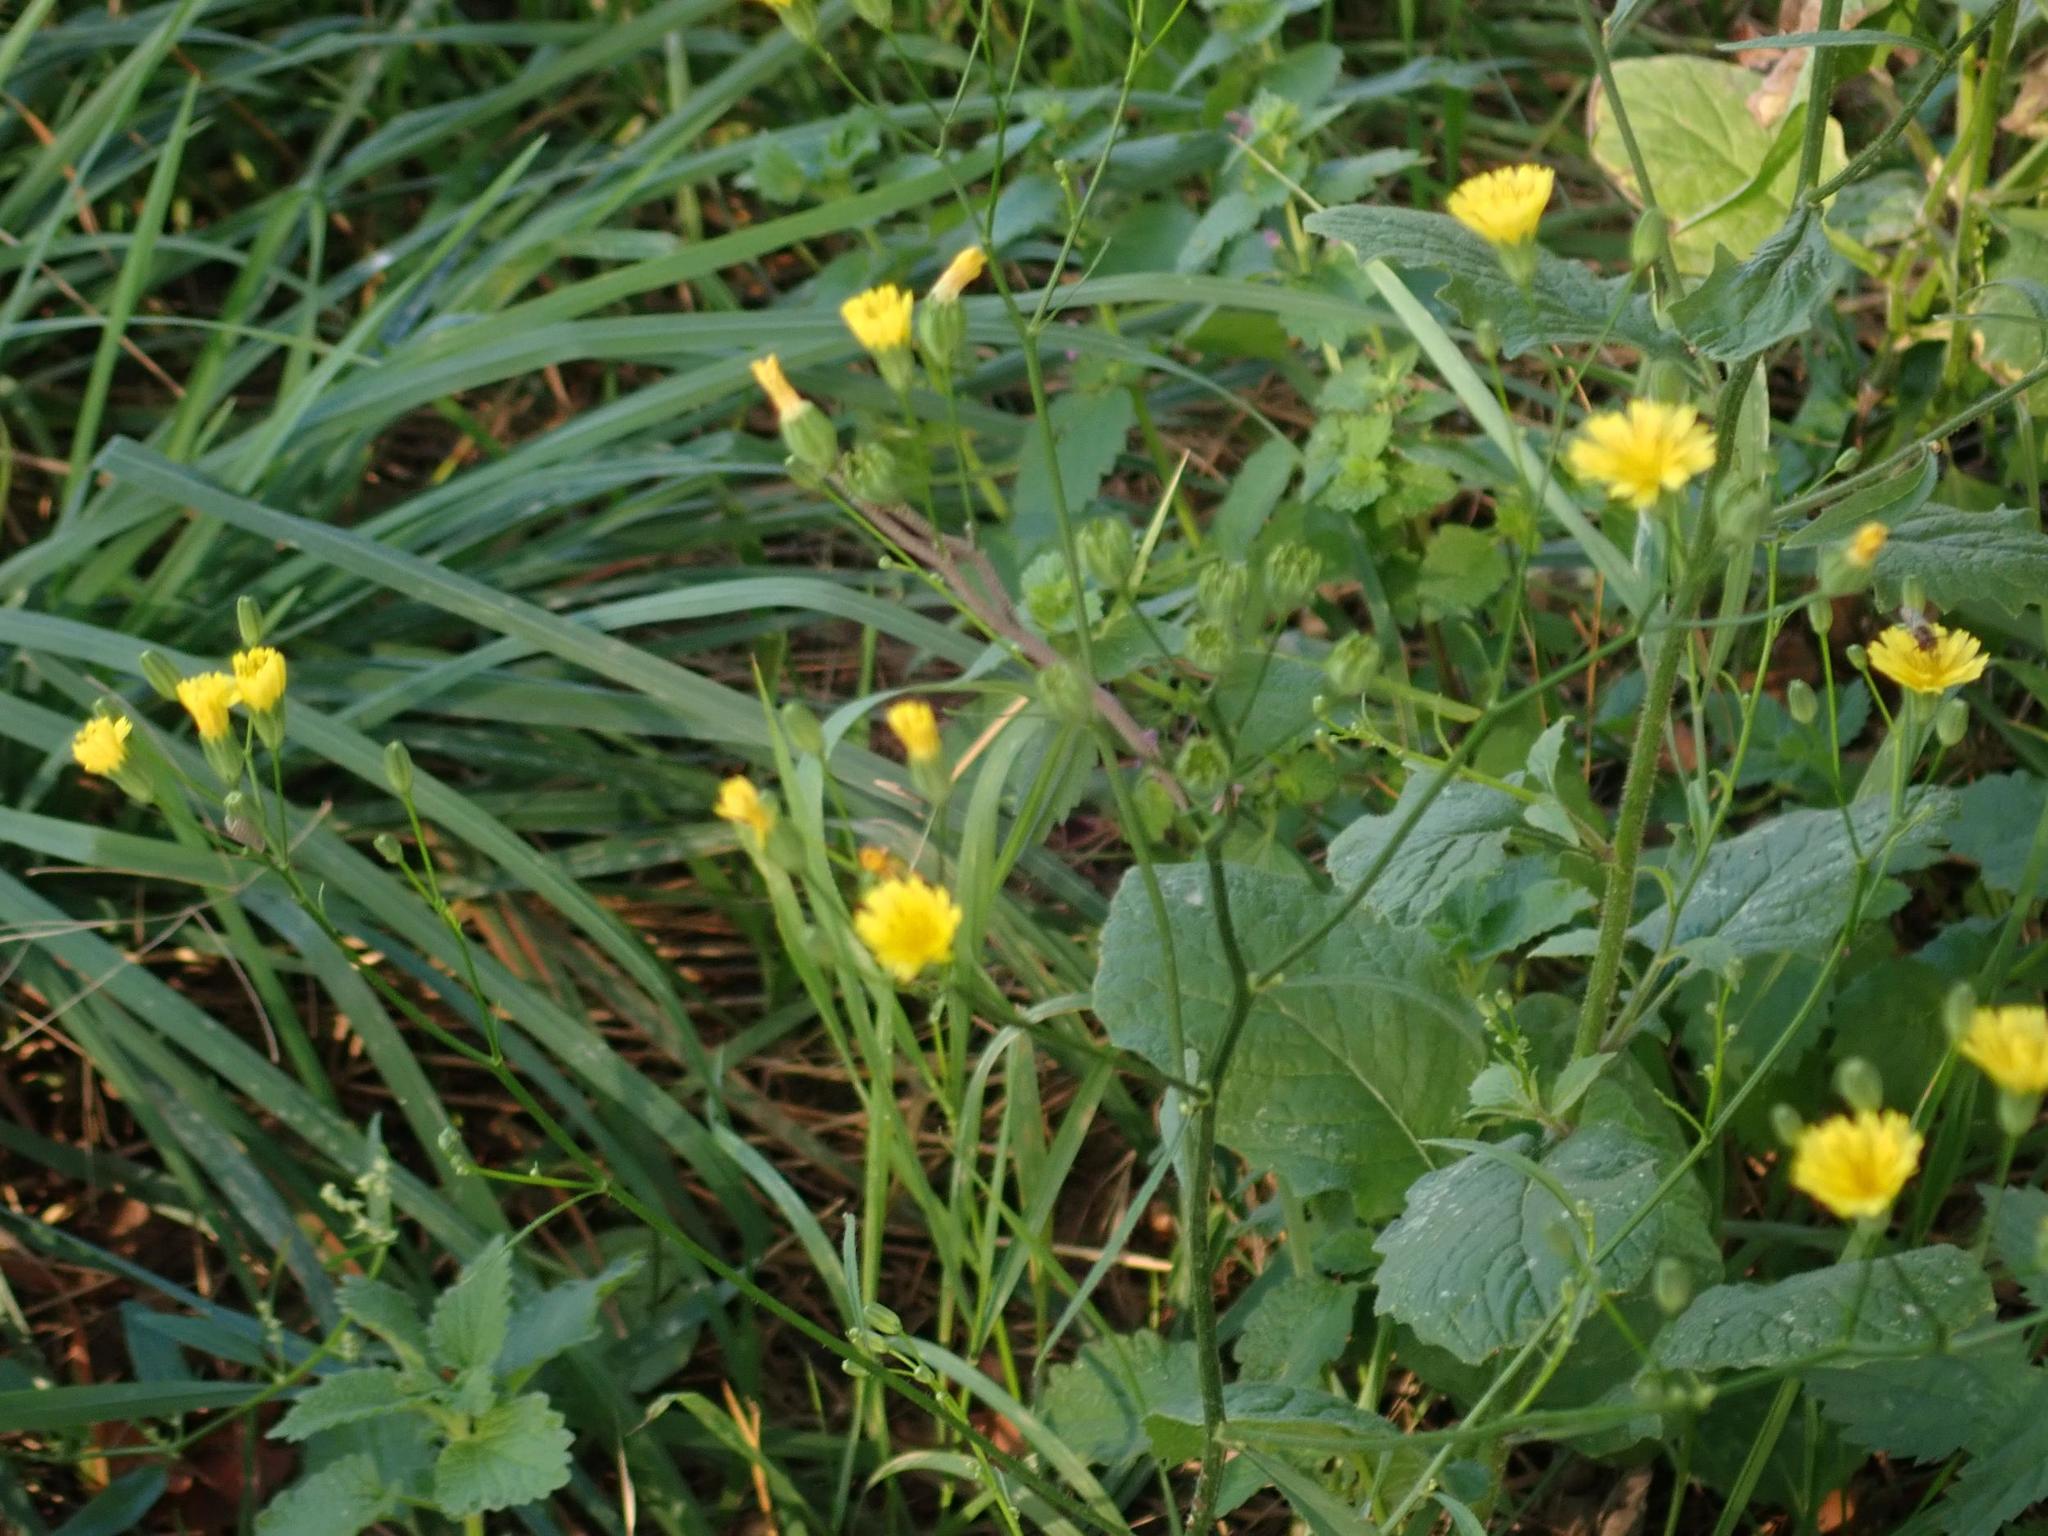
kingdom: Plantae
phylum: Tracheophyta
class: Magnoliopsida
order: Asterales
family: Asteraceae
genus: Lapsana
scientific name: Lapsana communis
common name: Nipplewort
